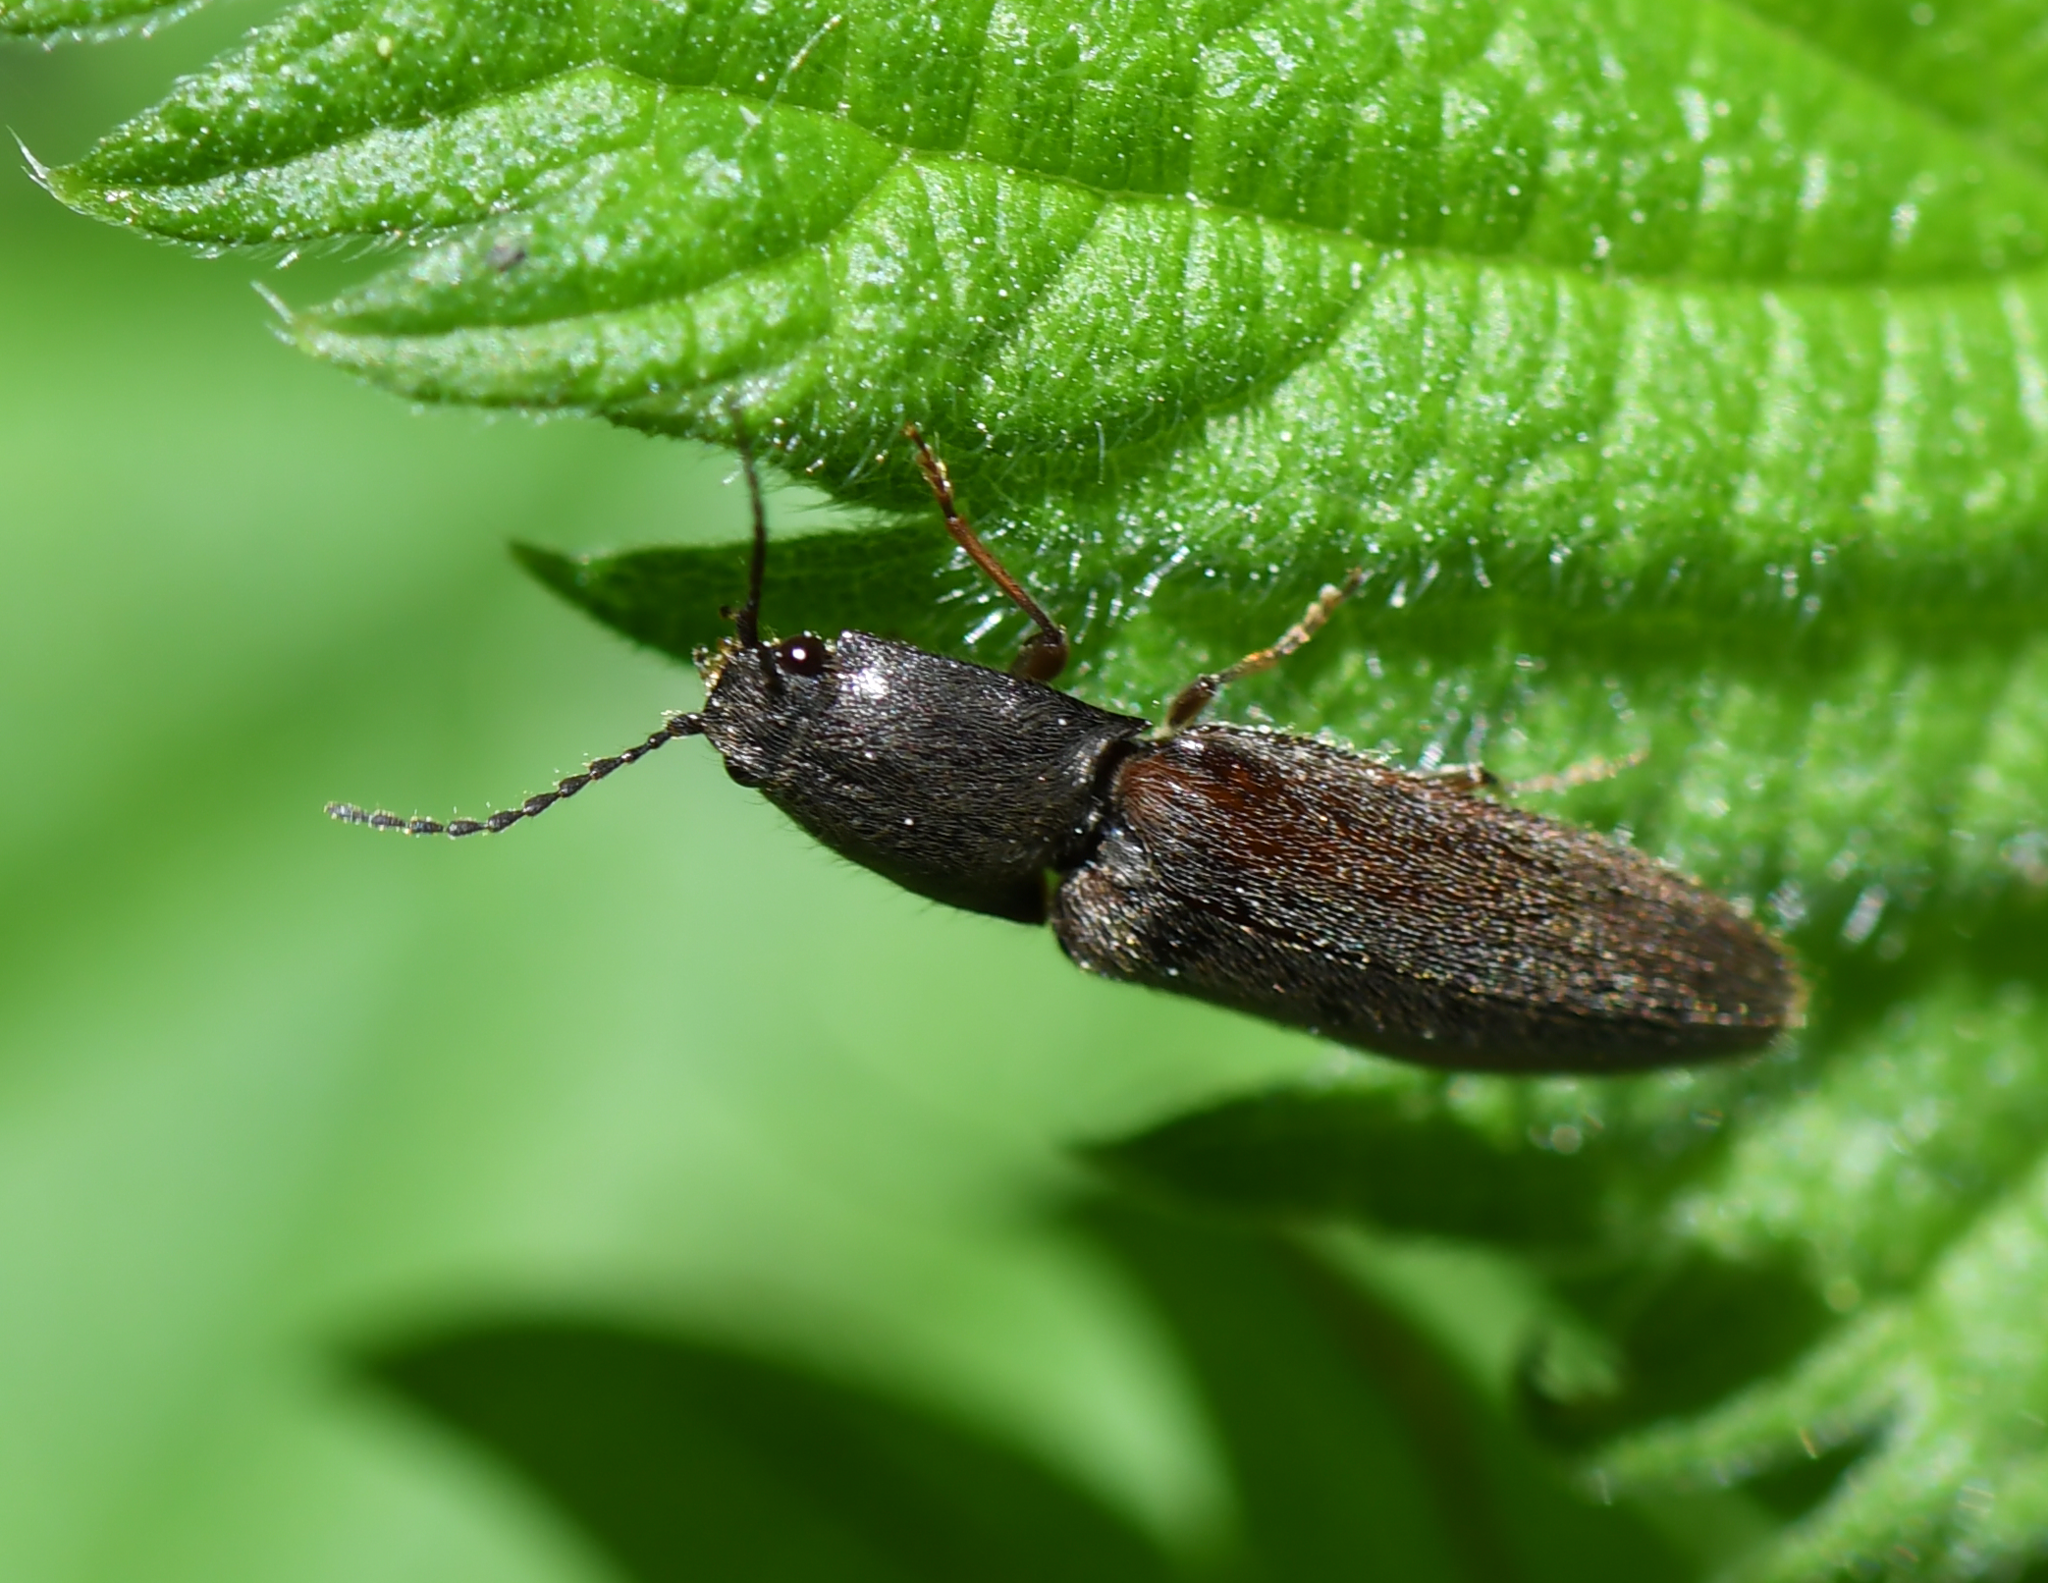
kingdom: Animalia
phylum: Arthropoda
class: Insecta
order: Coleoptera
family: Elateridae
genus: Athous
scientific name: Athous haemorrhoidalis
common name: Red-brown click beetle
